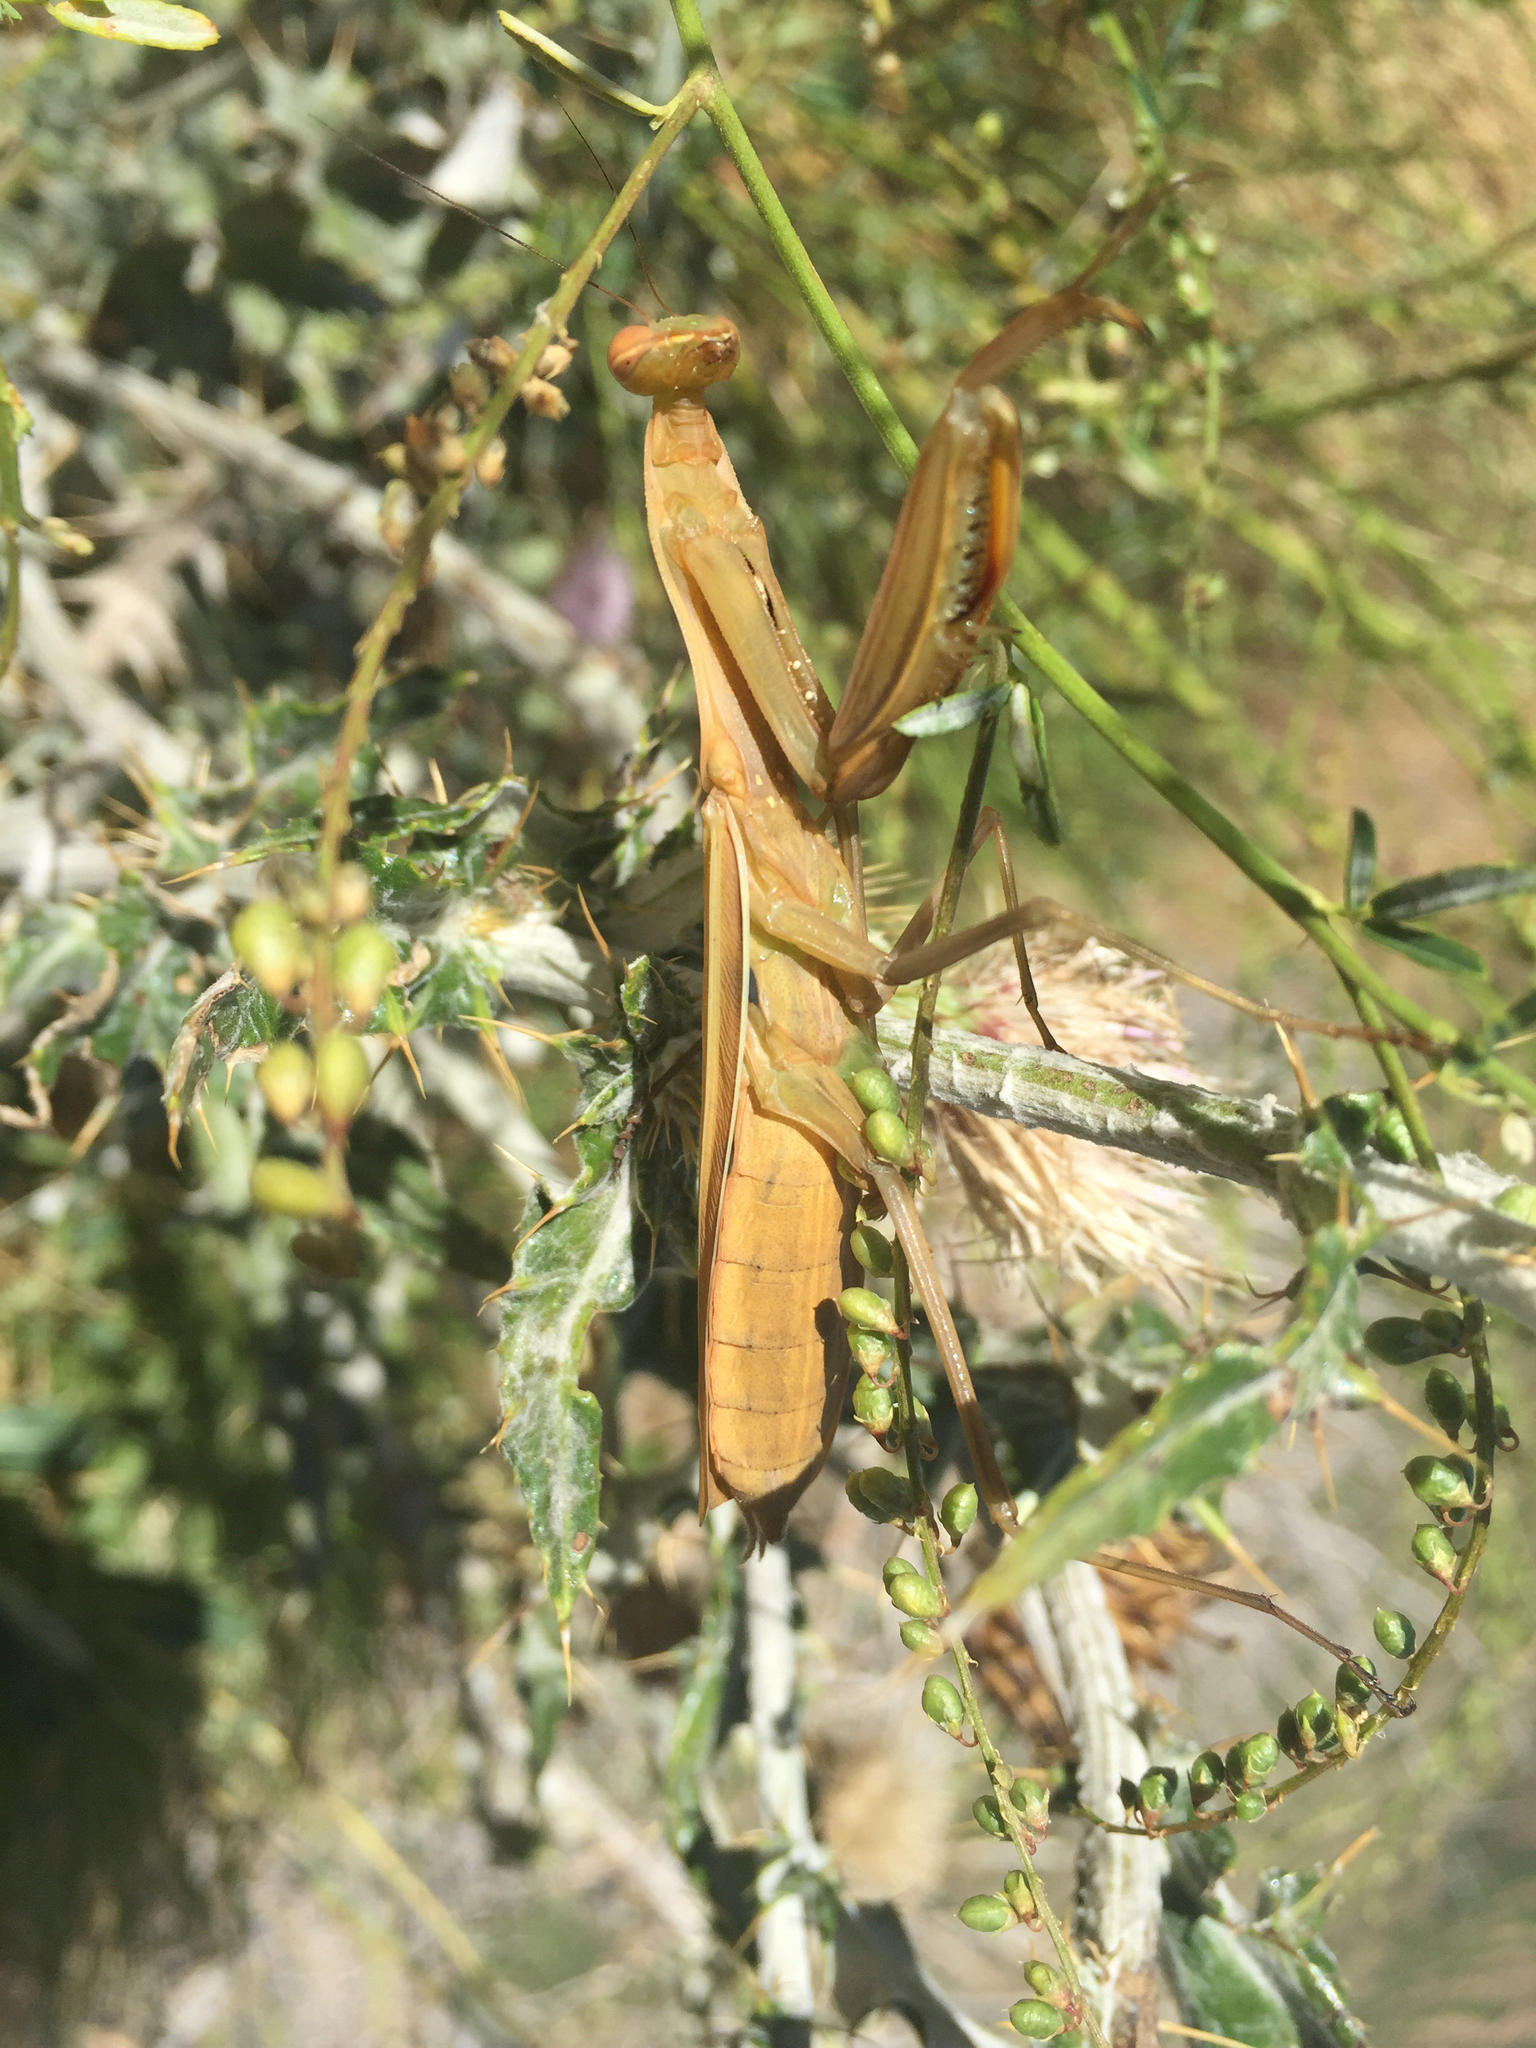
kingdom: Animalia
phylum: Arthropoda
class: Insecta
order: Mantodea
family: Mantidae
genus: Mantis
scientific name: Mantis religiosa
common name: Praying mantis
